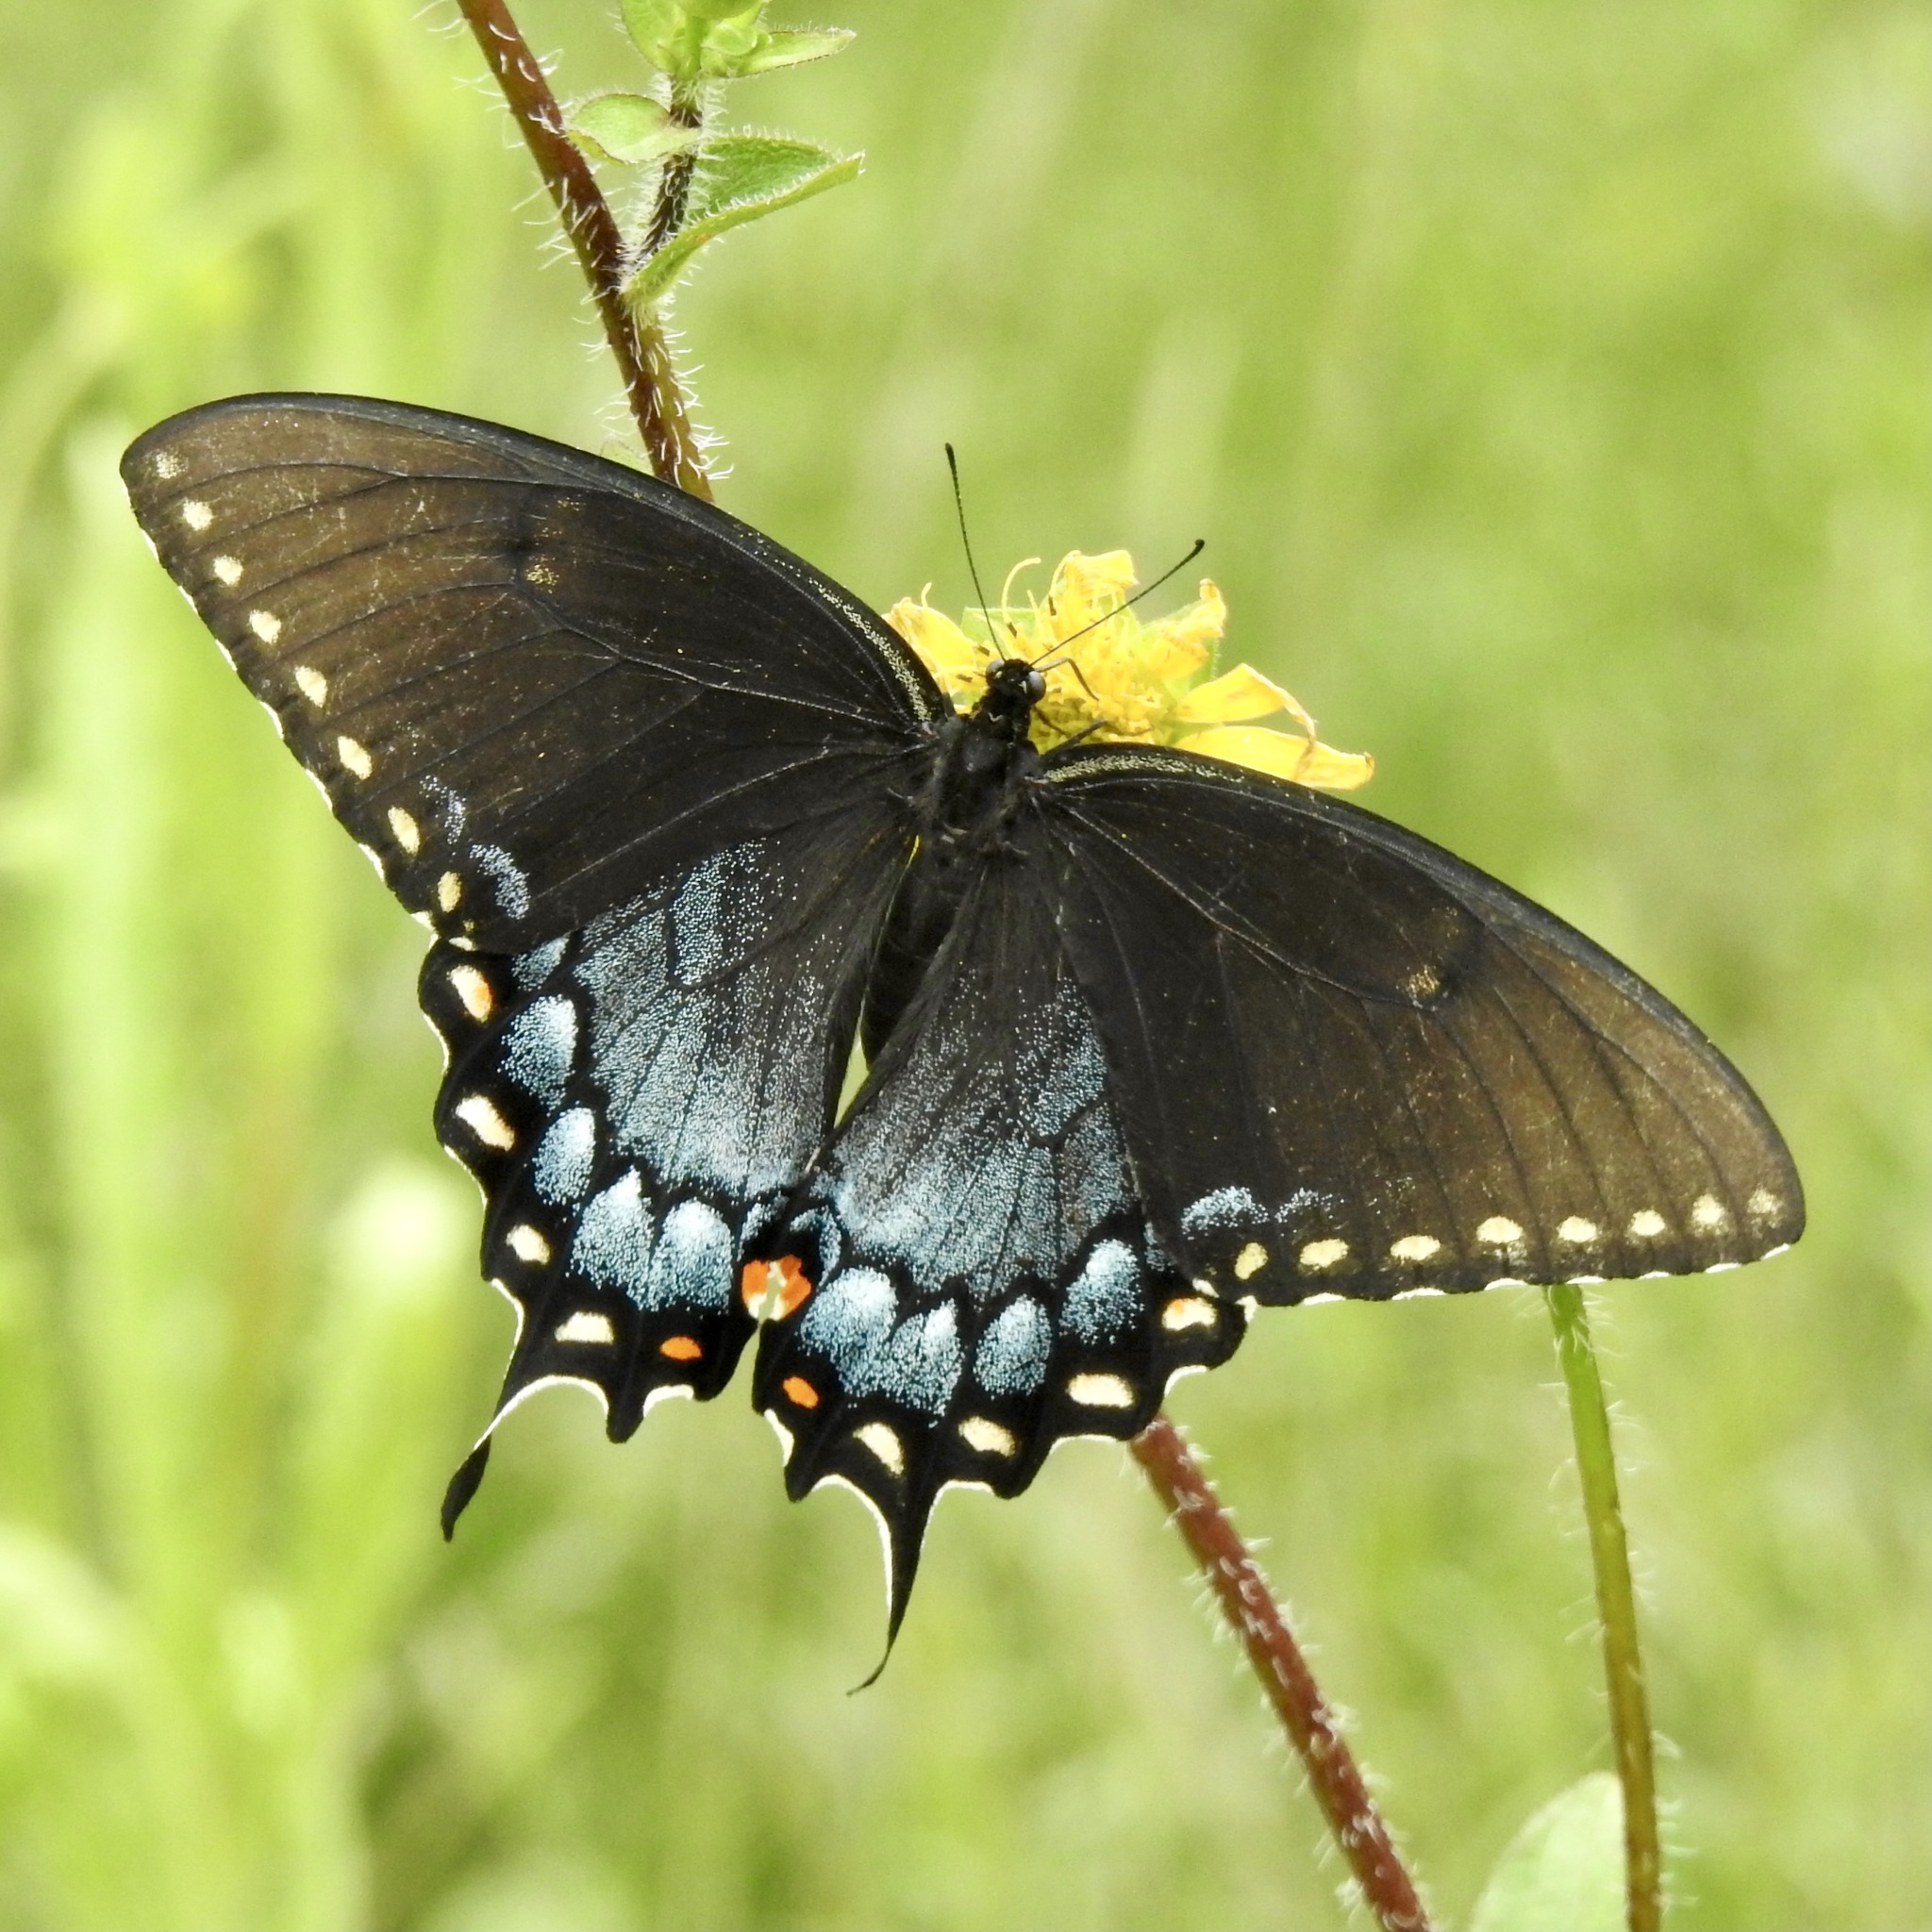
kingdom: Animalia
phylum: Arthropoda
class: Insecta
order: Lepidoptera
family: Papilionidae
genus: Papilio
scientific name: Papilio glaucus
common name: Tiger swallowtail
